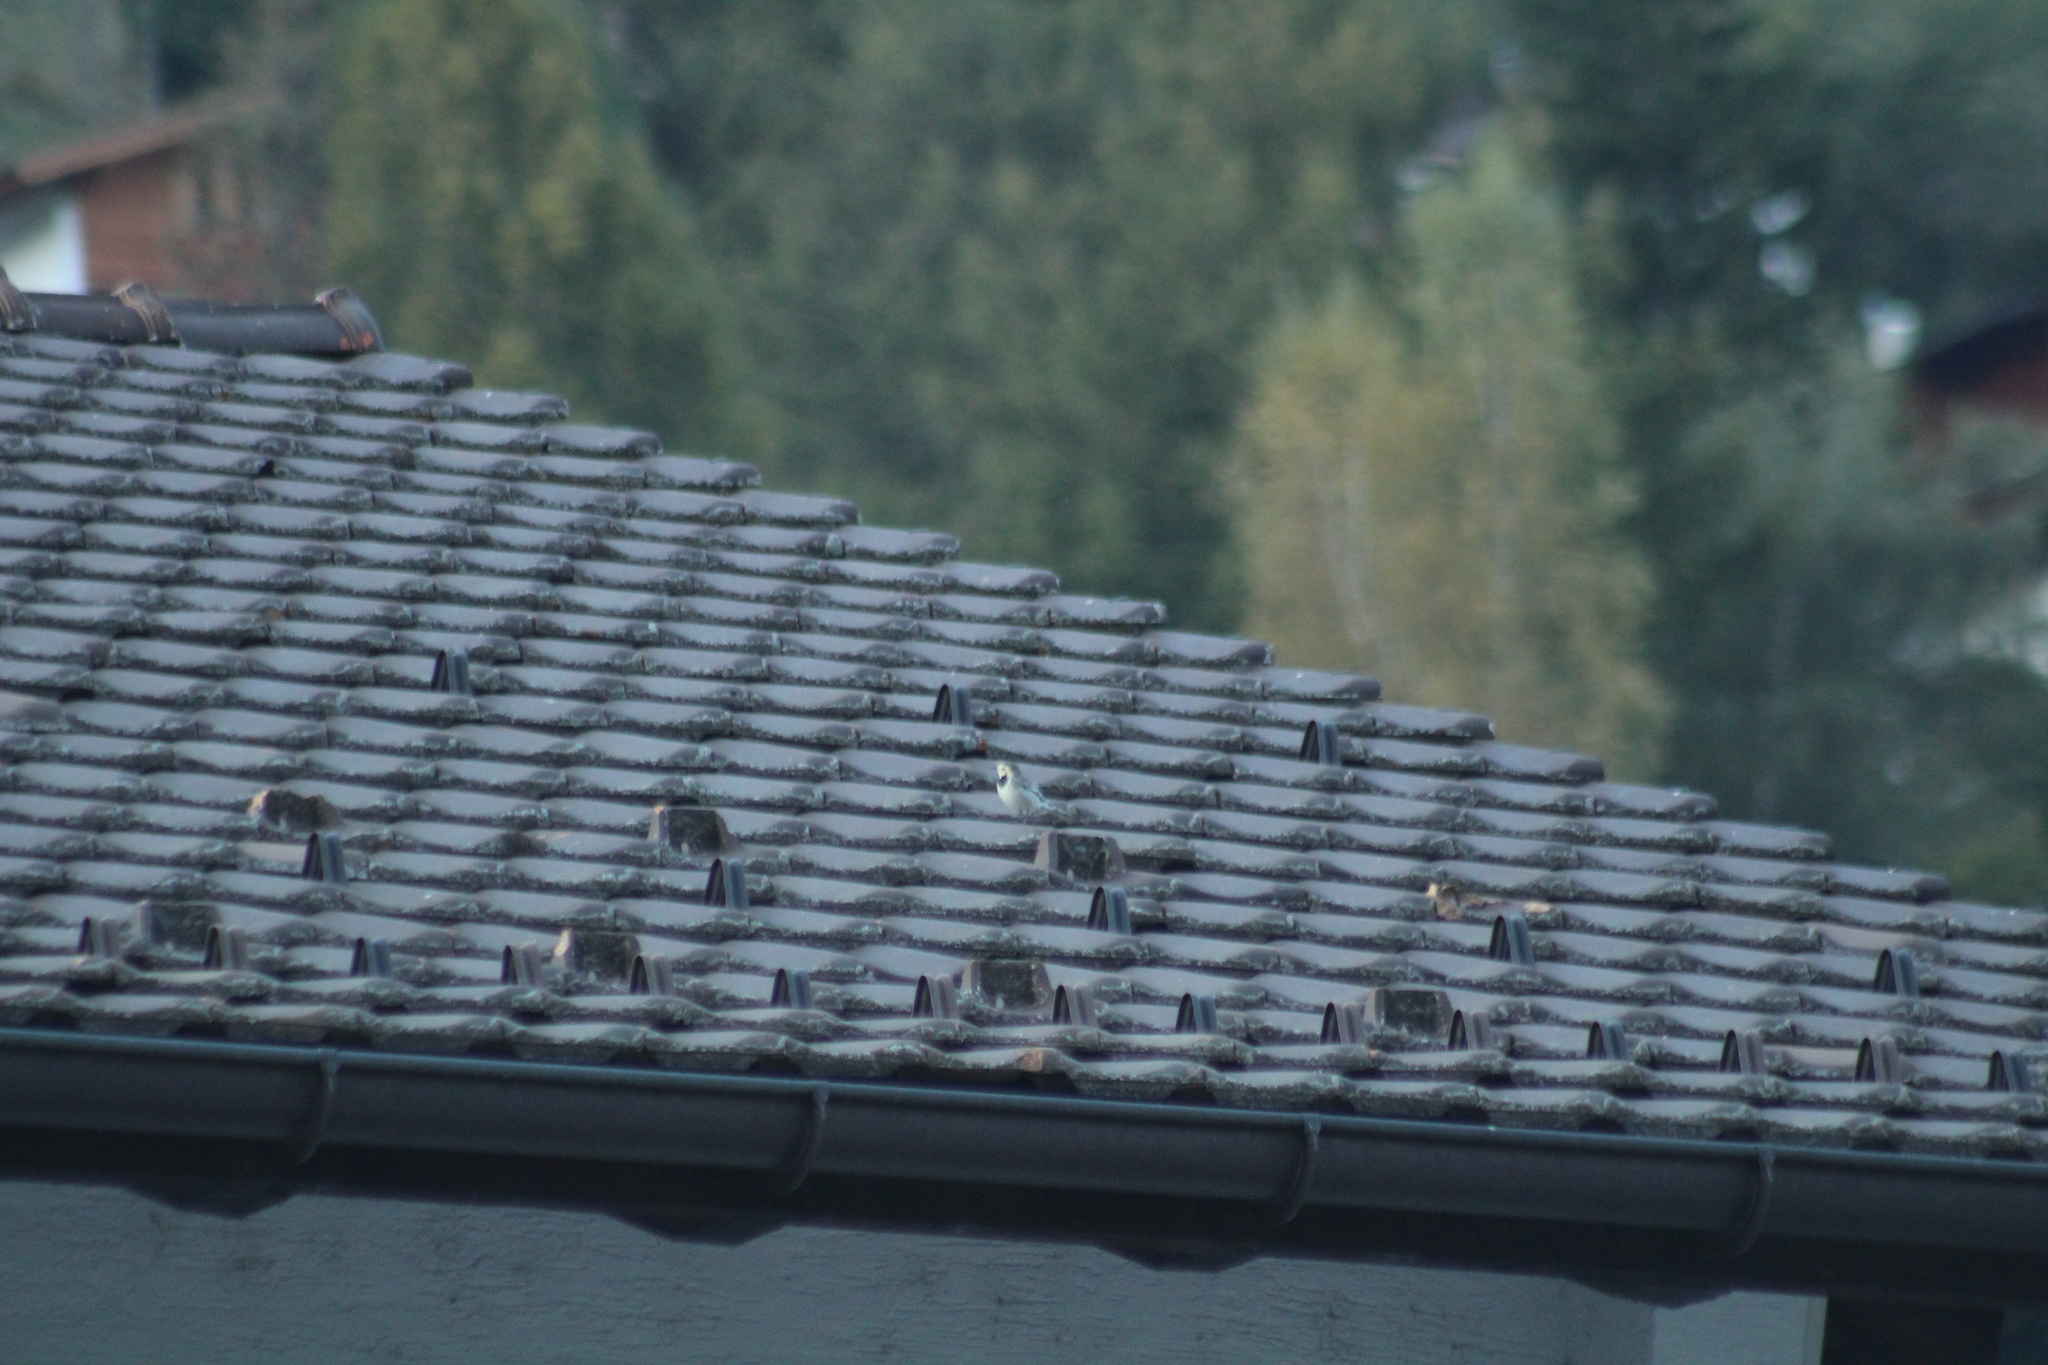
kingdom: Animalia
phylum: Chordata
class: Aves
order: Passeriformes
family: Motacillidae
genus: Motacilla
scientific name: Motacilla alba
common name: White wagtail
